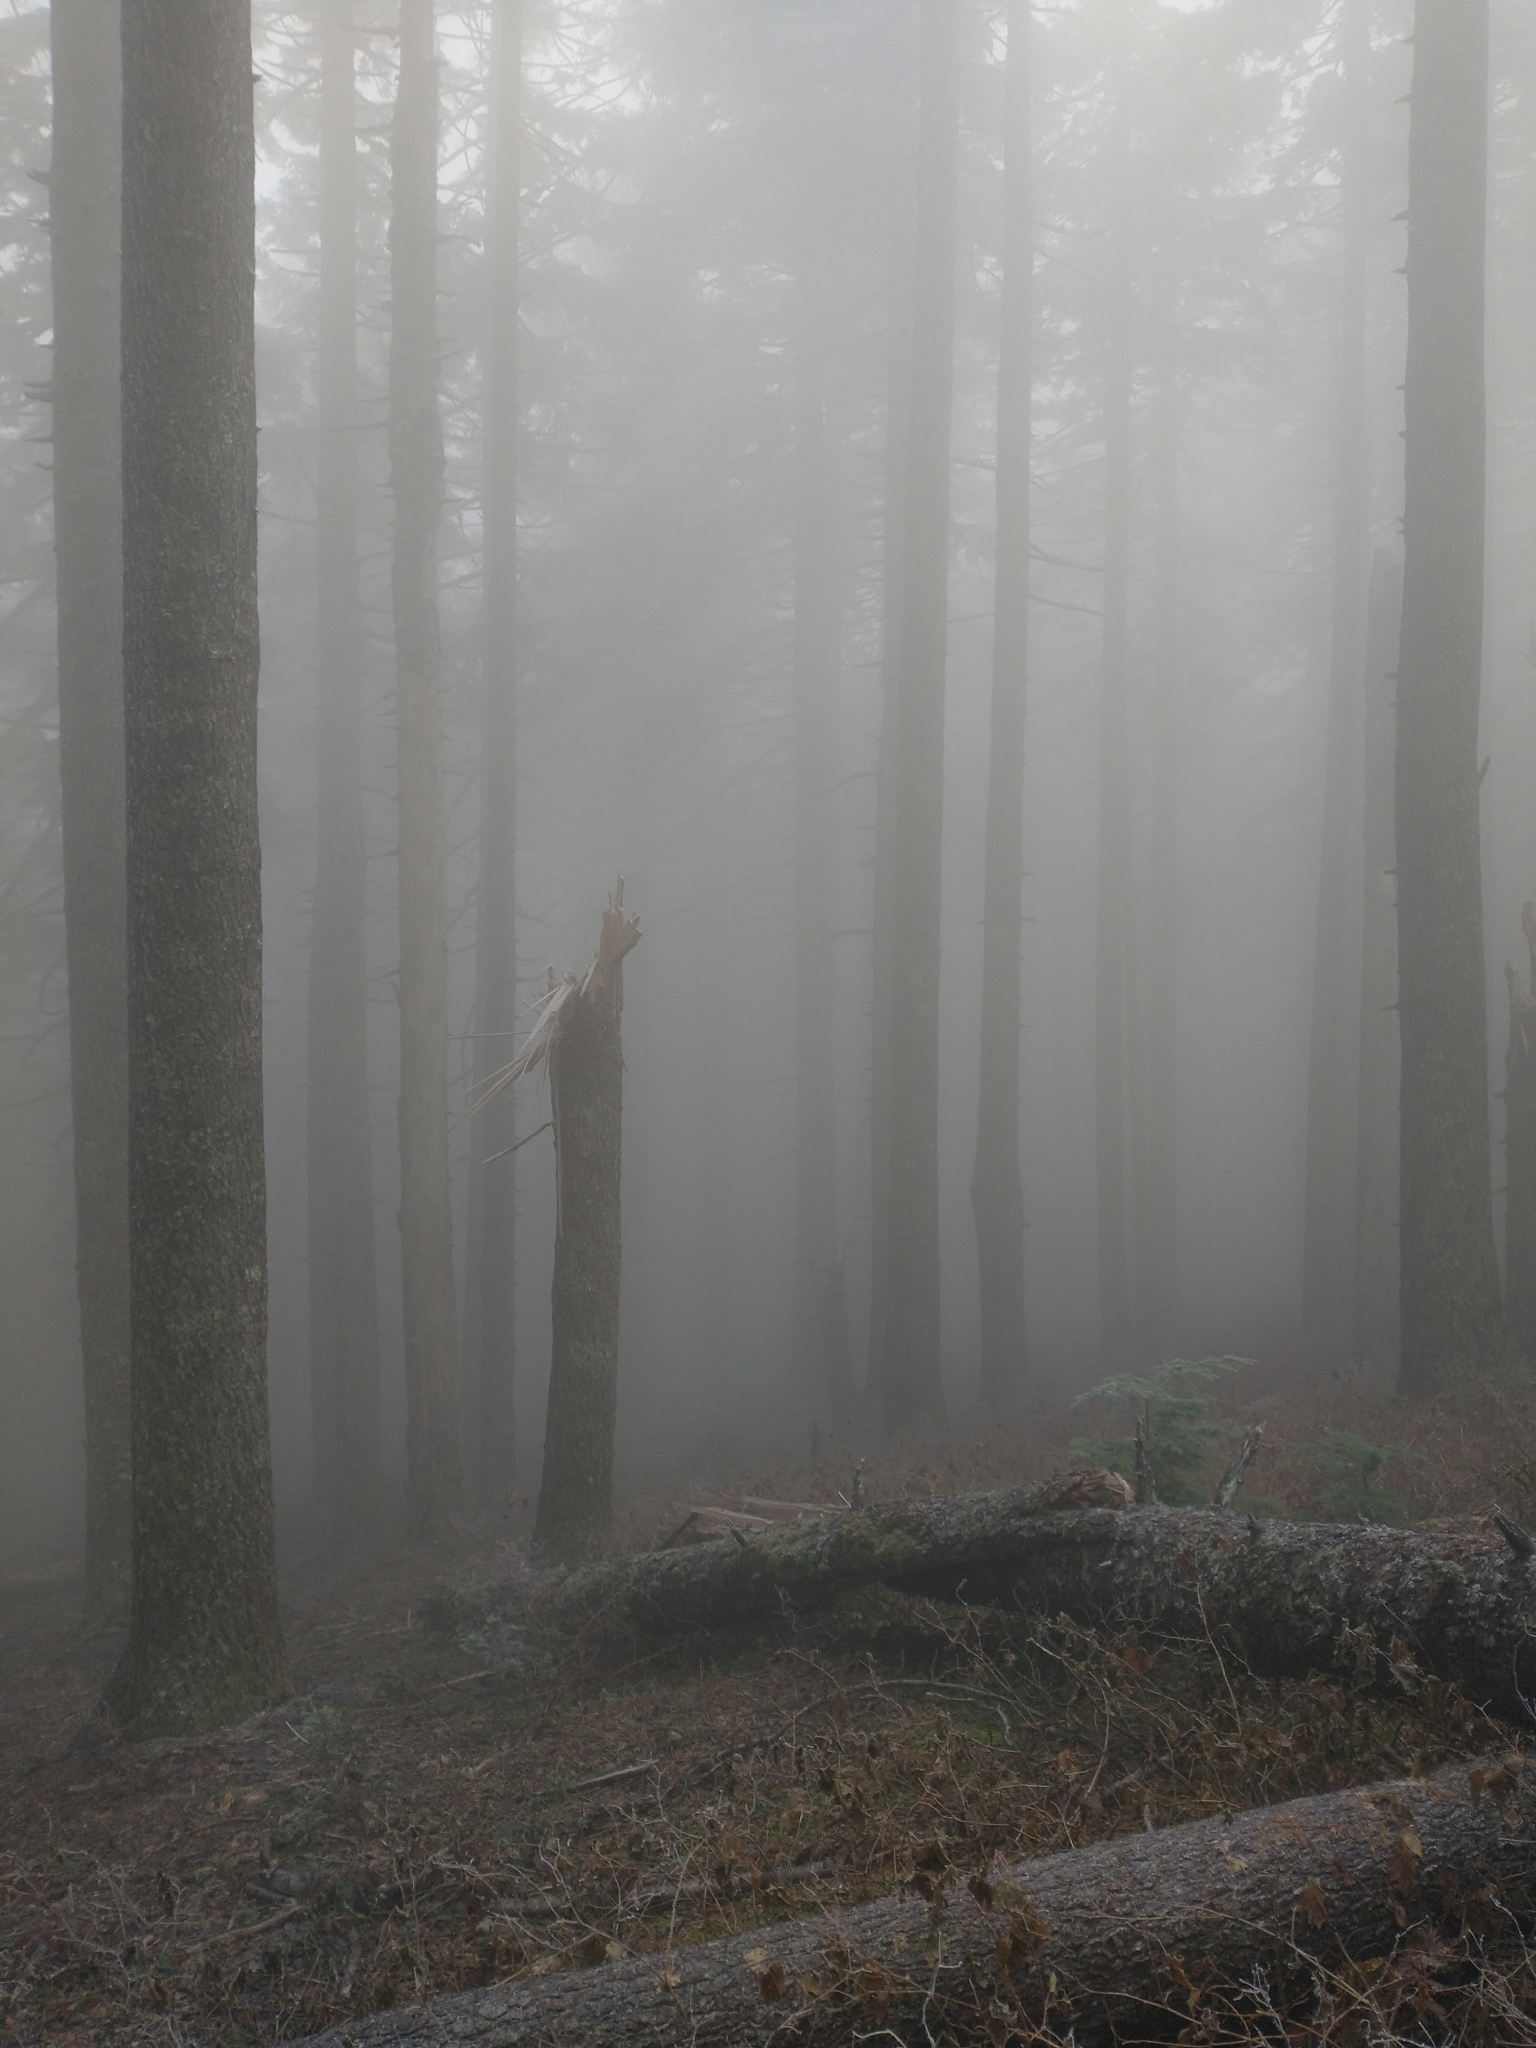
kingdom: Plantae
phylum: Tracheophyta
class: Pinopsida
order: Pinales
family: Pinaceae
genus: Abies
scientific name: Abies procera
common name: Noble fir
